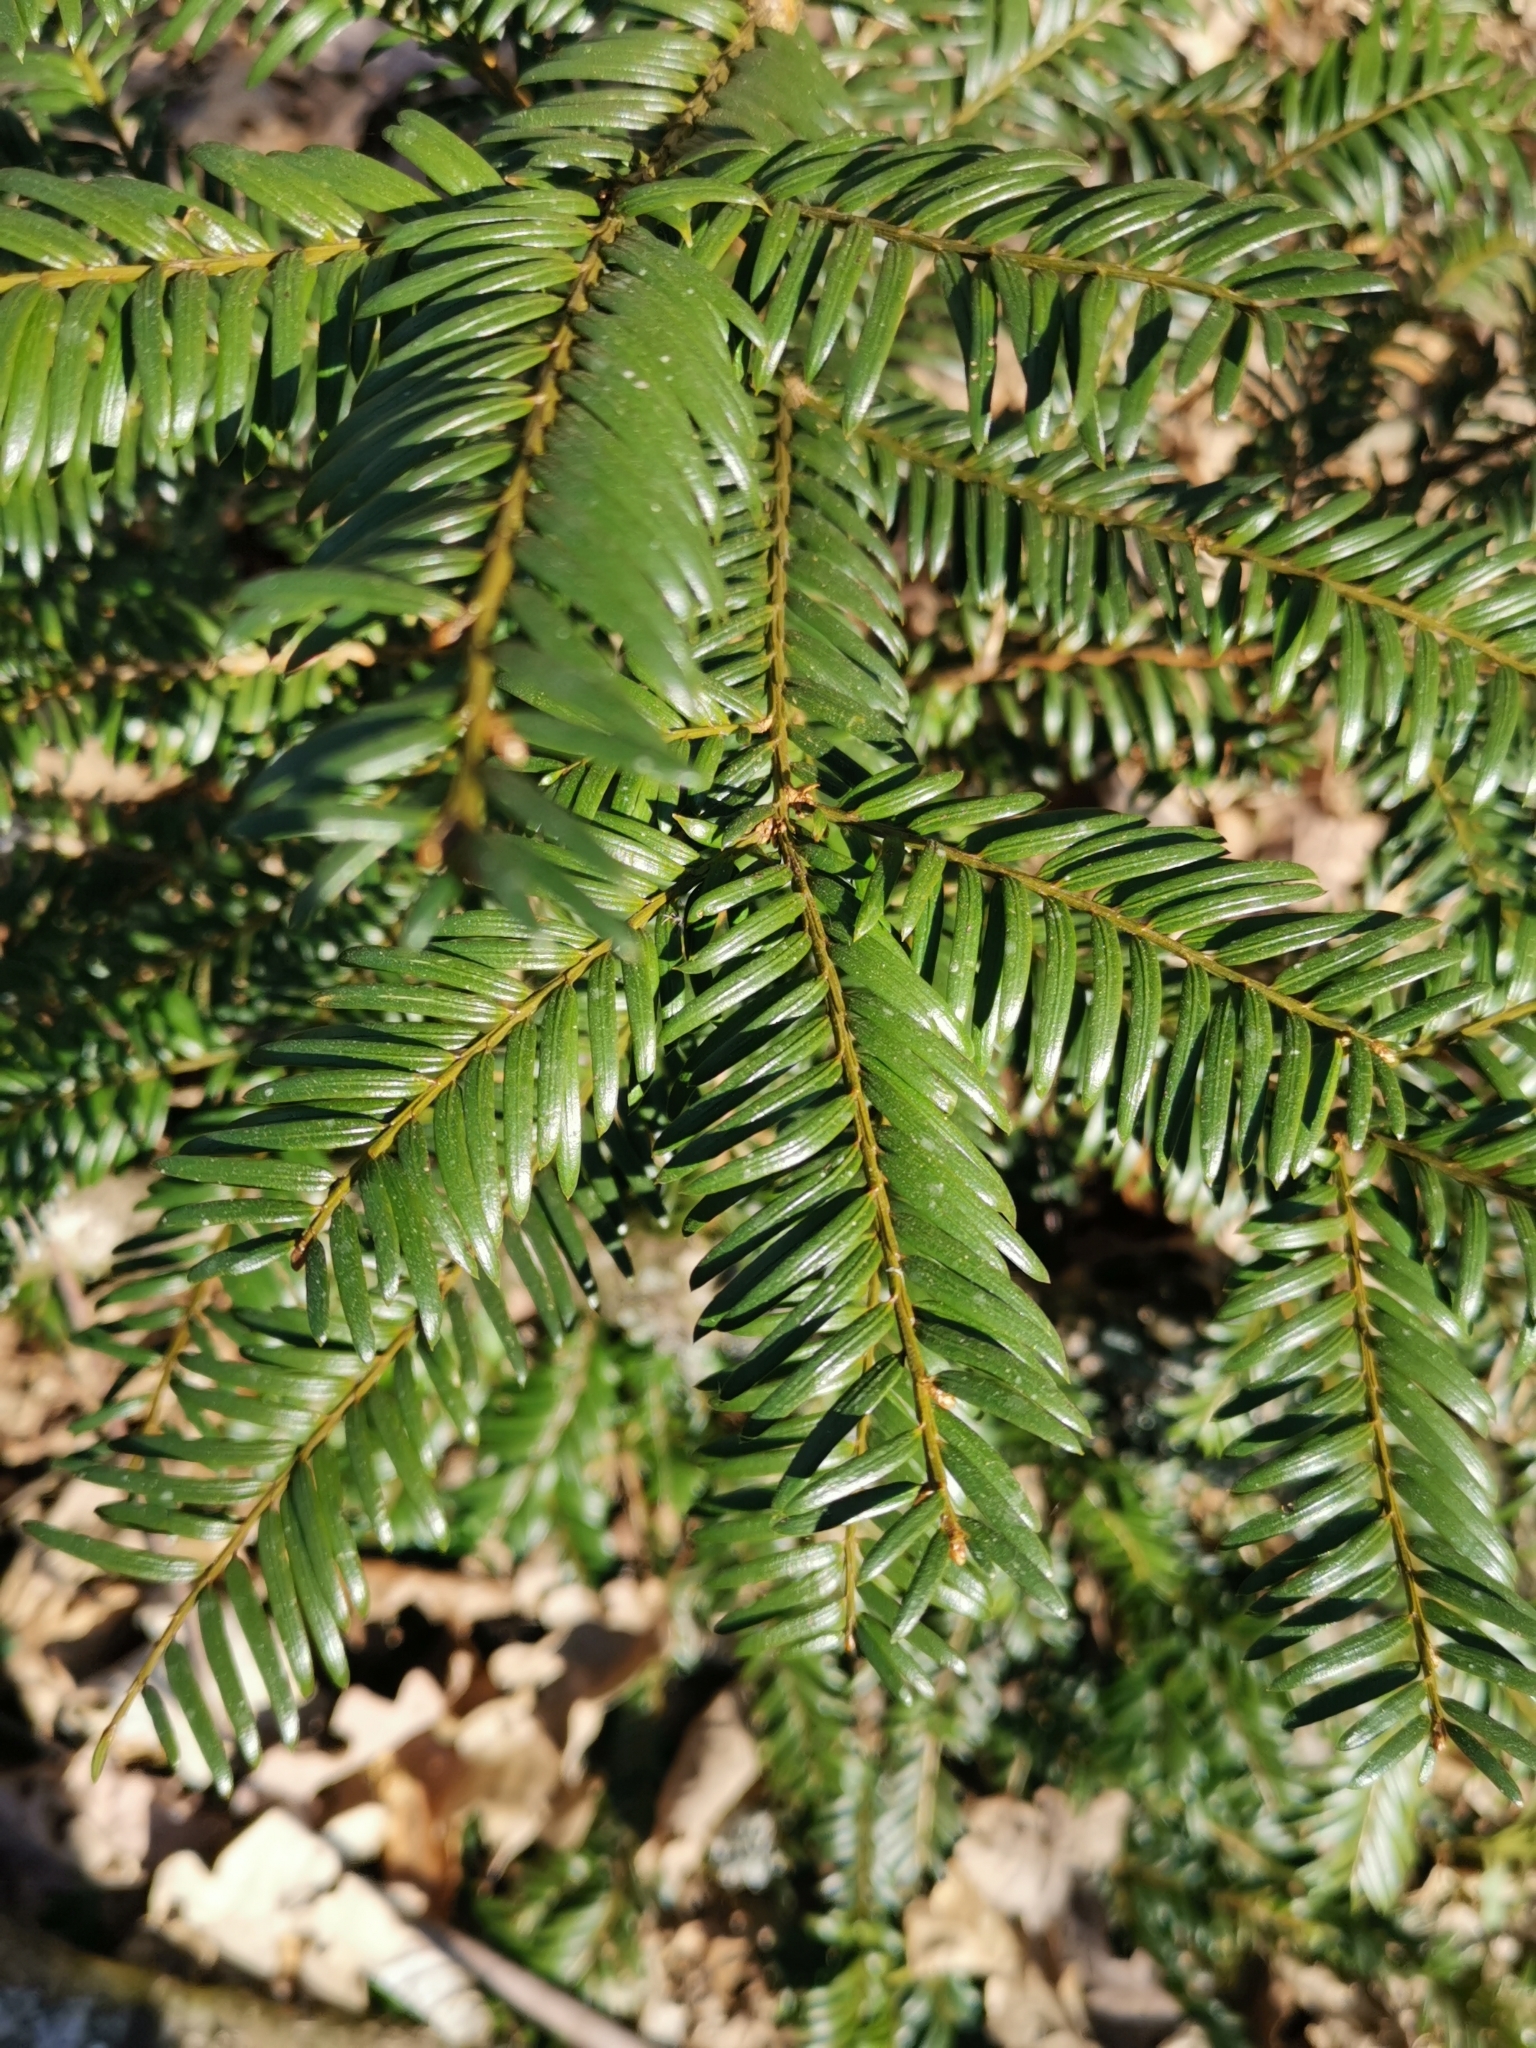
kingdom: Plantae
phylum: Tracheophyta
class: Pinopsida
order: Pinales
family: Taxaceae
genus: Taxus
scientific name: Taxus baccata
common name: Yew
